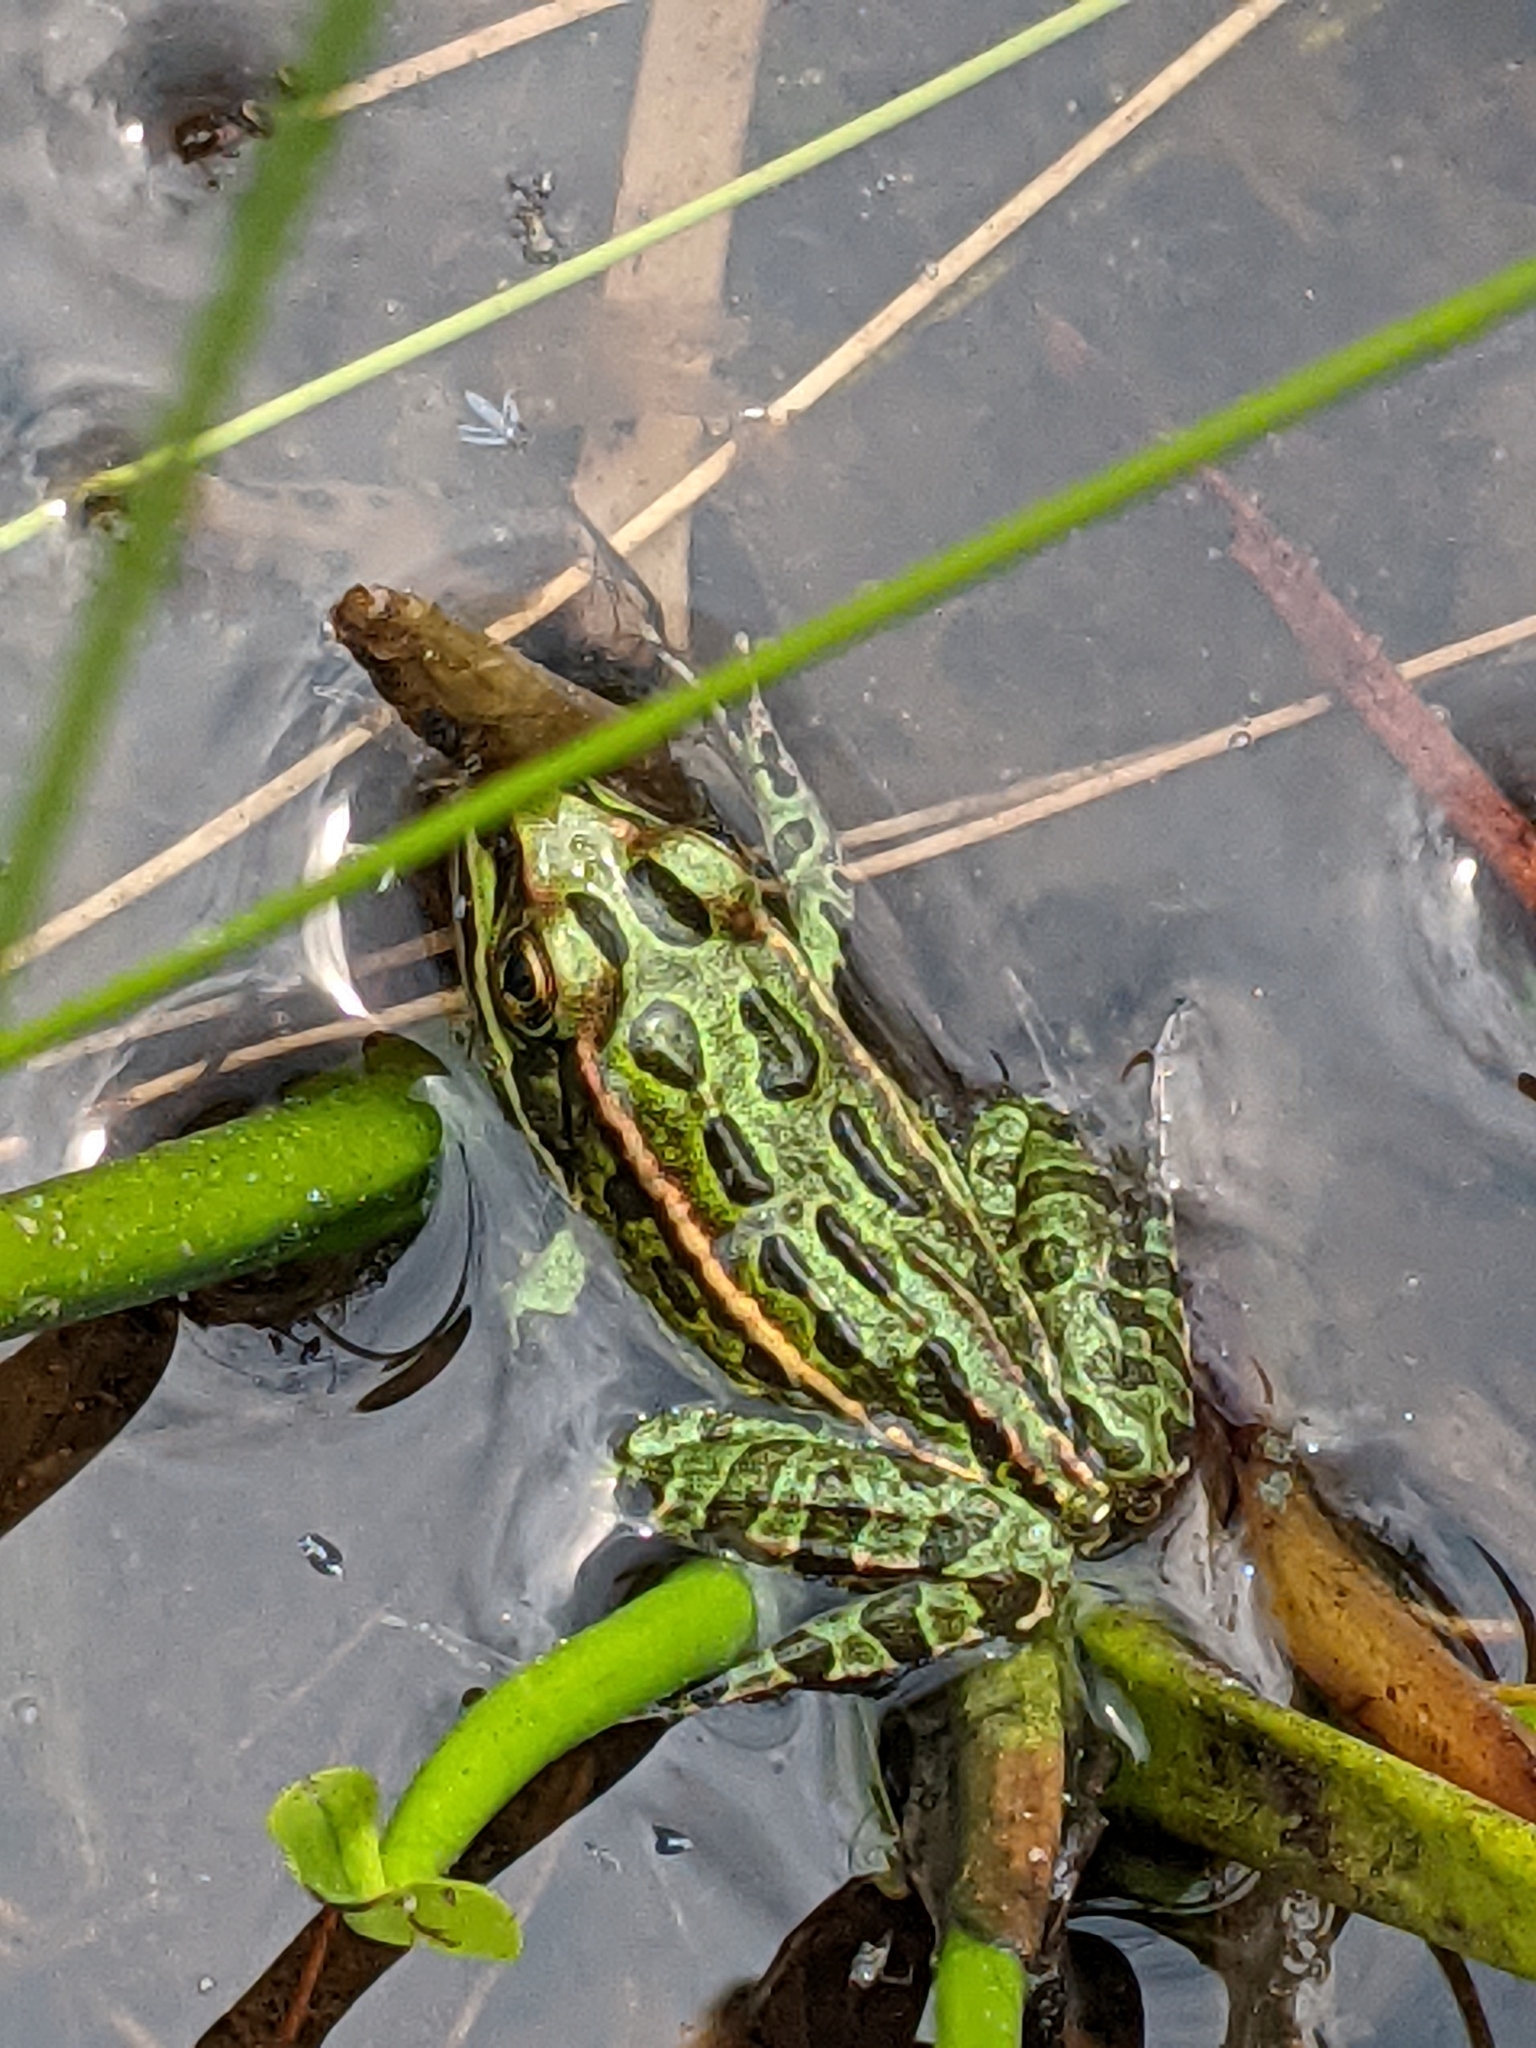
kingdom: Animalia
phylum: Chordata
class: Amphibia
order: Anura
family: Ranidae
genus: Lithobates
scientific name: Lithobates pipiens
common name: Northern leopard frog
